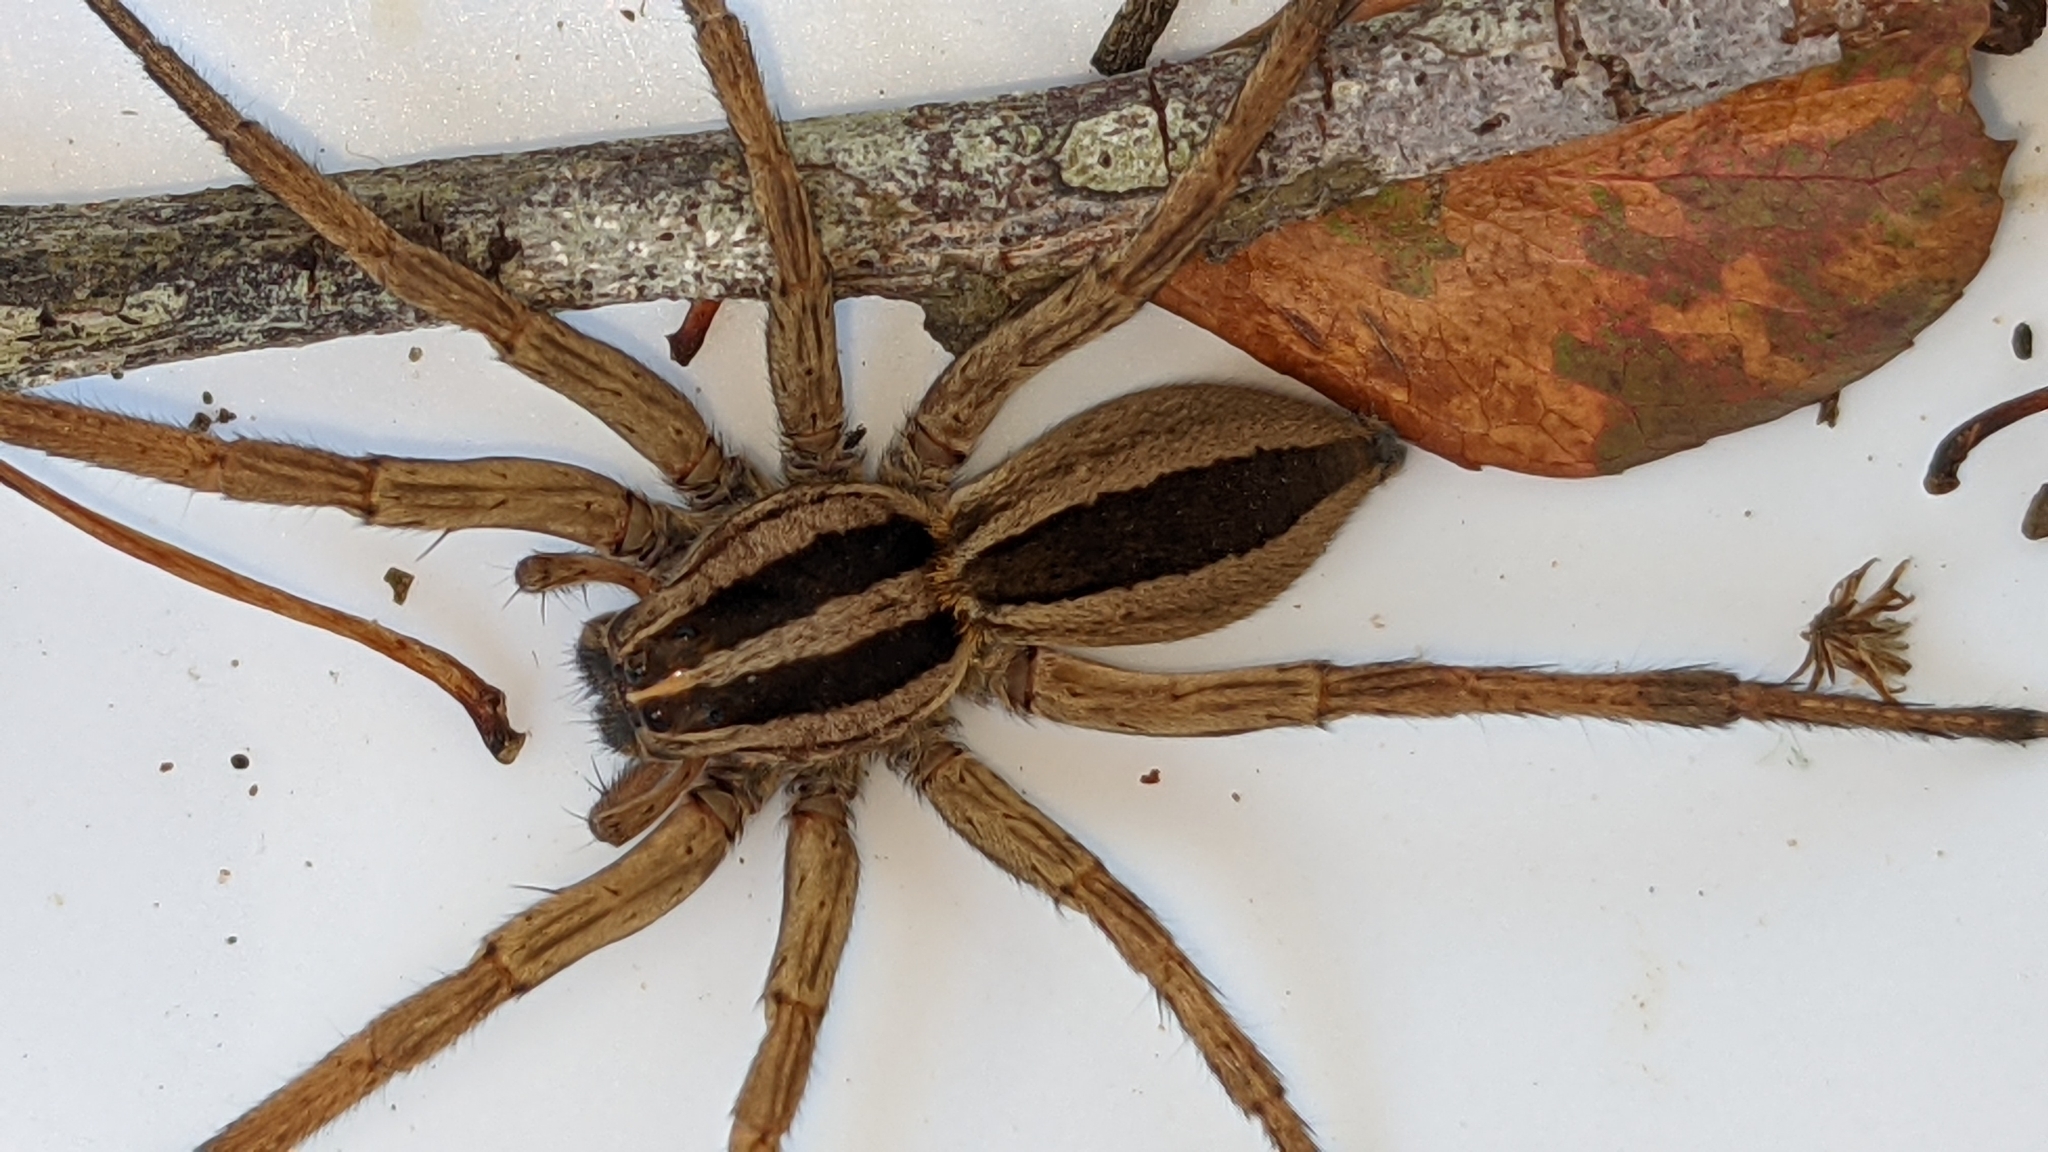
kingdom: Animalia
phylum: Arthropoda
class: Arachnida
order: Araneae
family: Lycosidae
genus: Rabidosa
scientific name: Rabidosa punctulata
